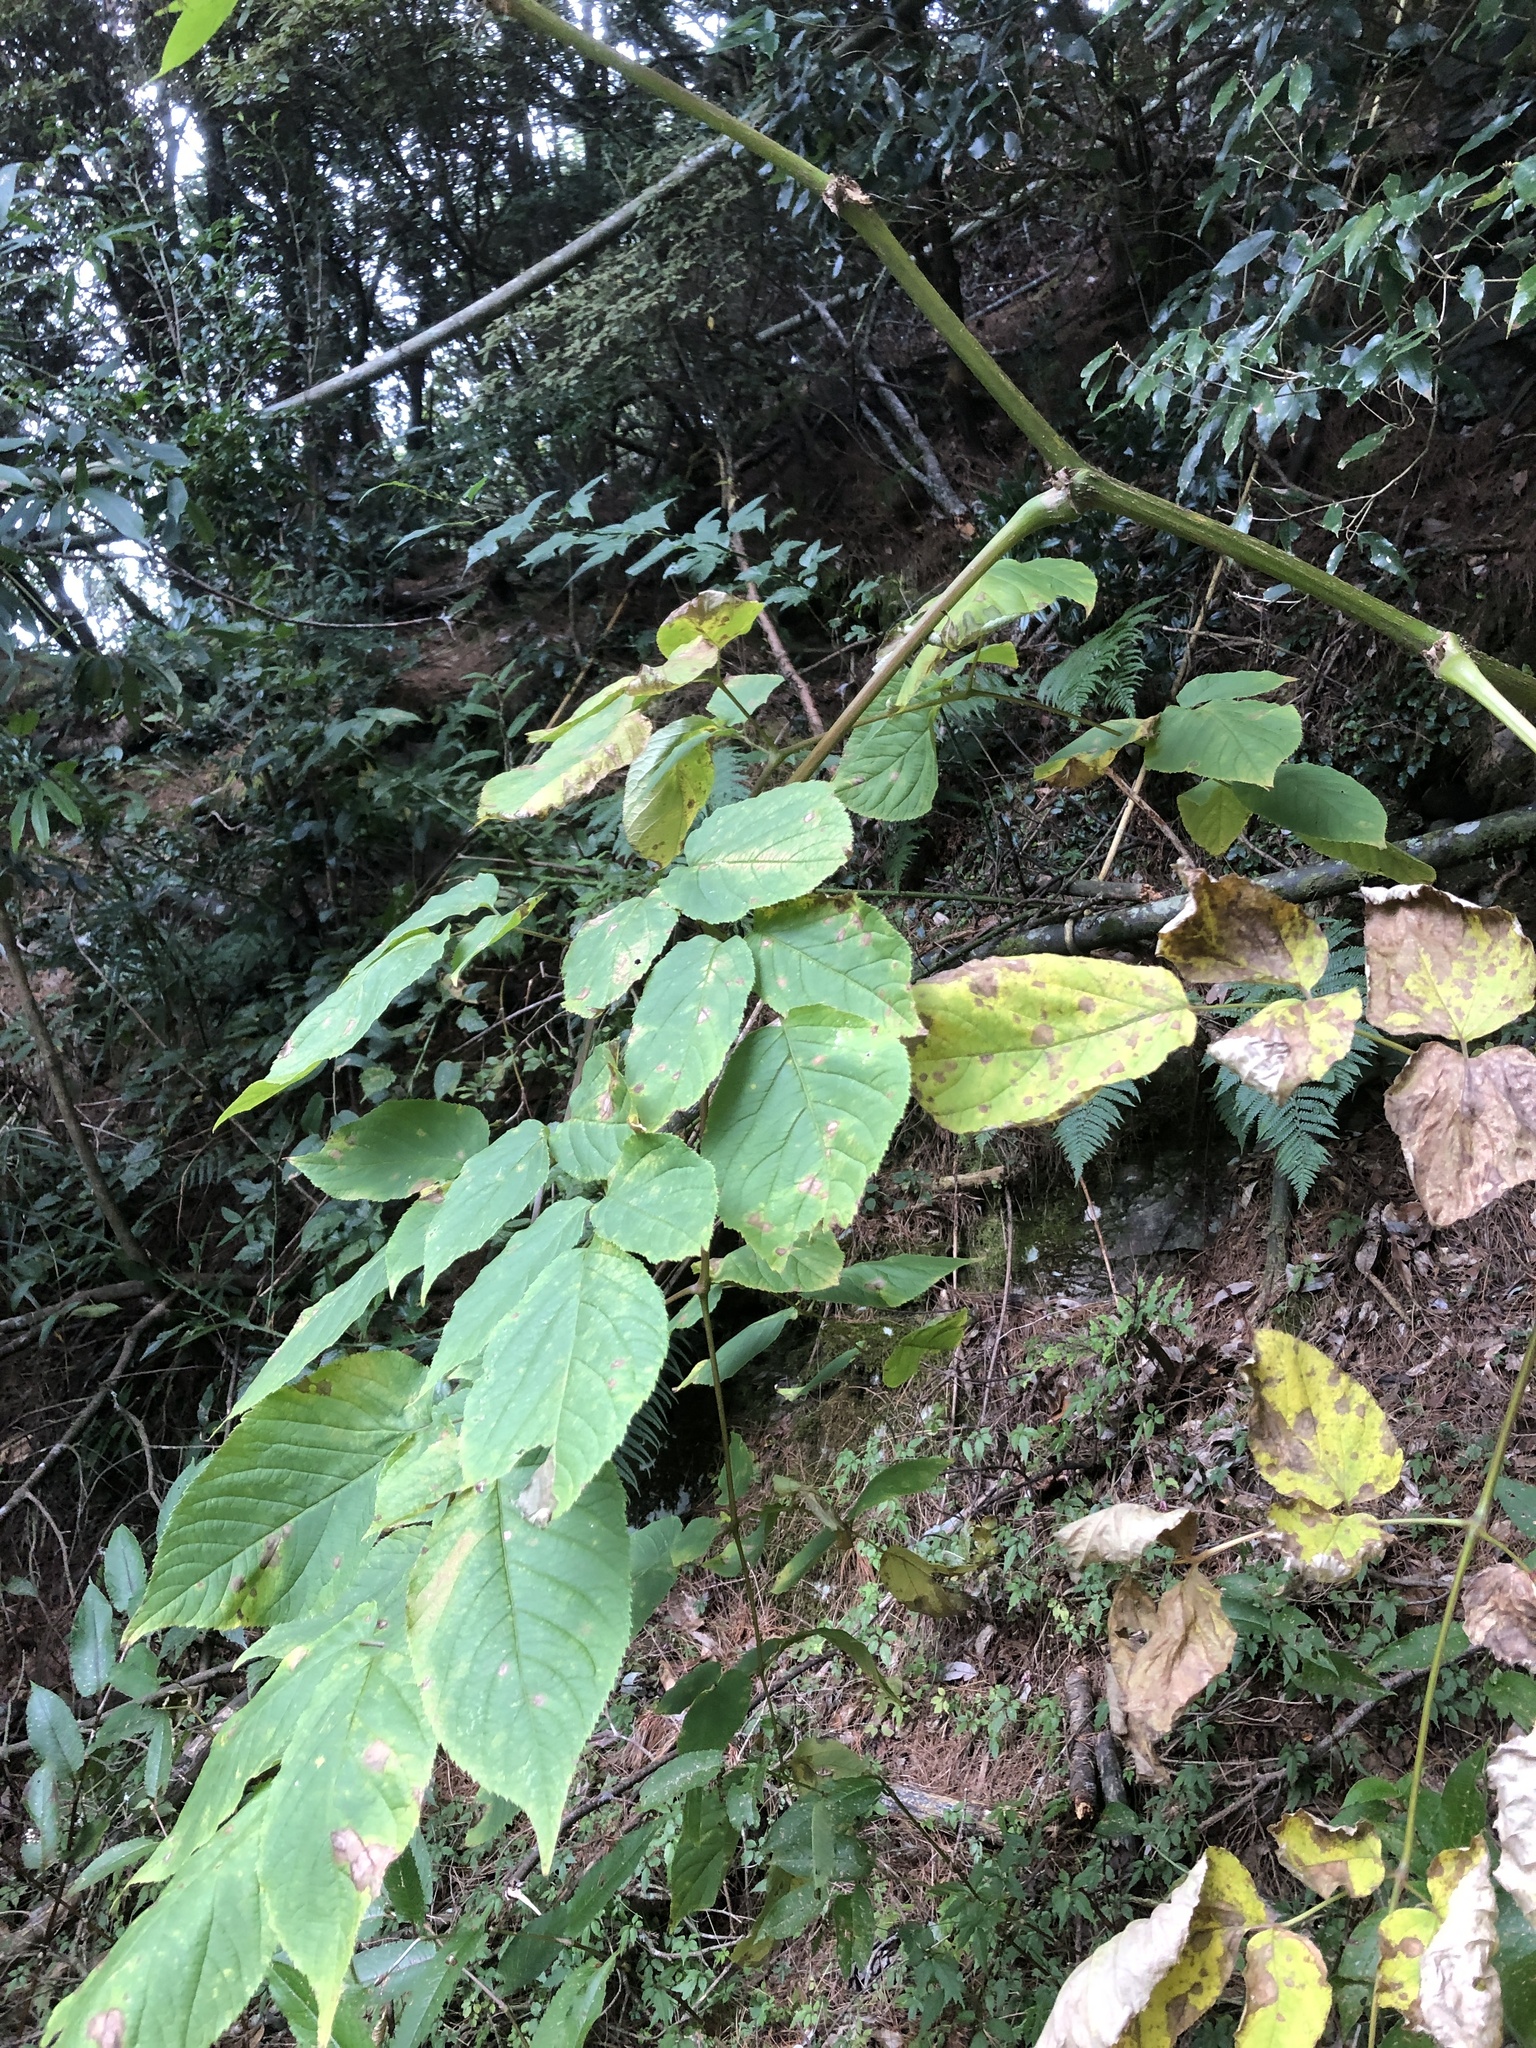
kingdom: Plantae
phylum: Tracheophyta
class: Magnoliopsida
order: Apiales
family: Araliaceae
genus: Aralia
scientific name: Aralia cordata
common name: Udo
